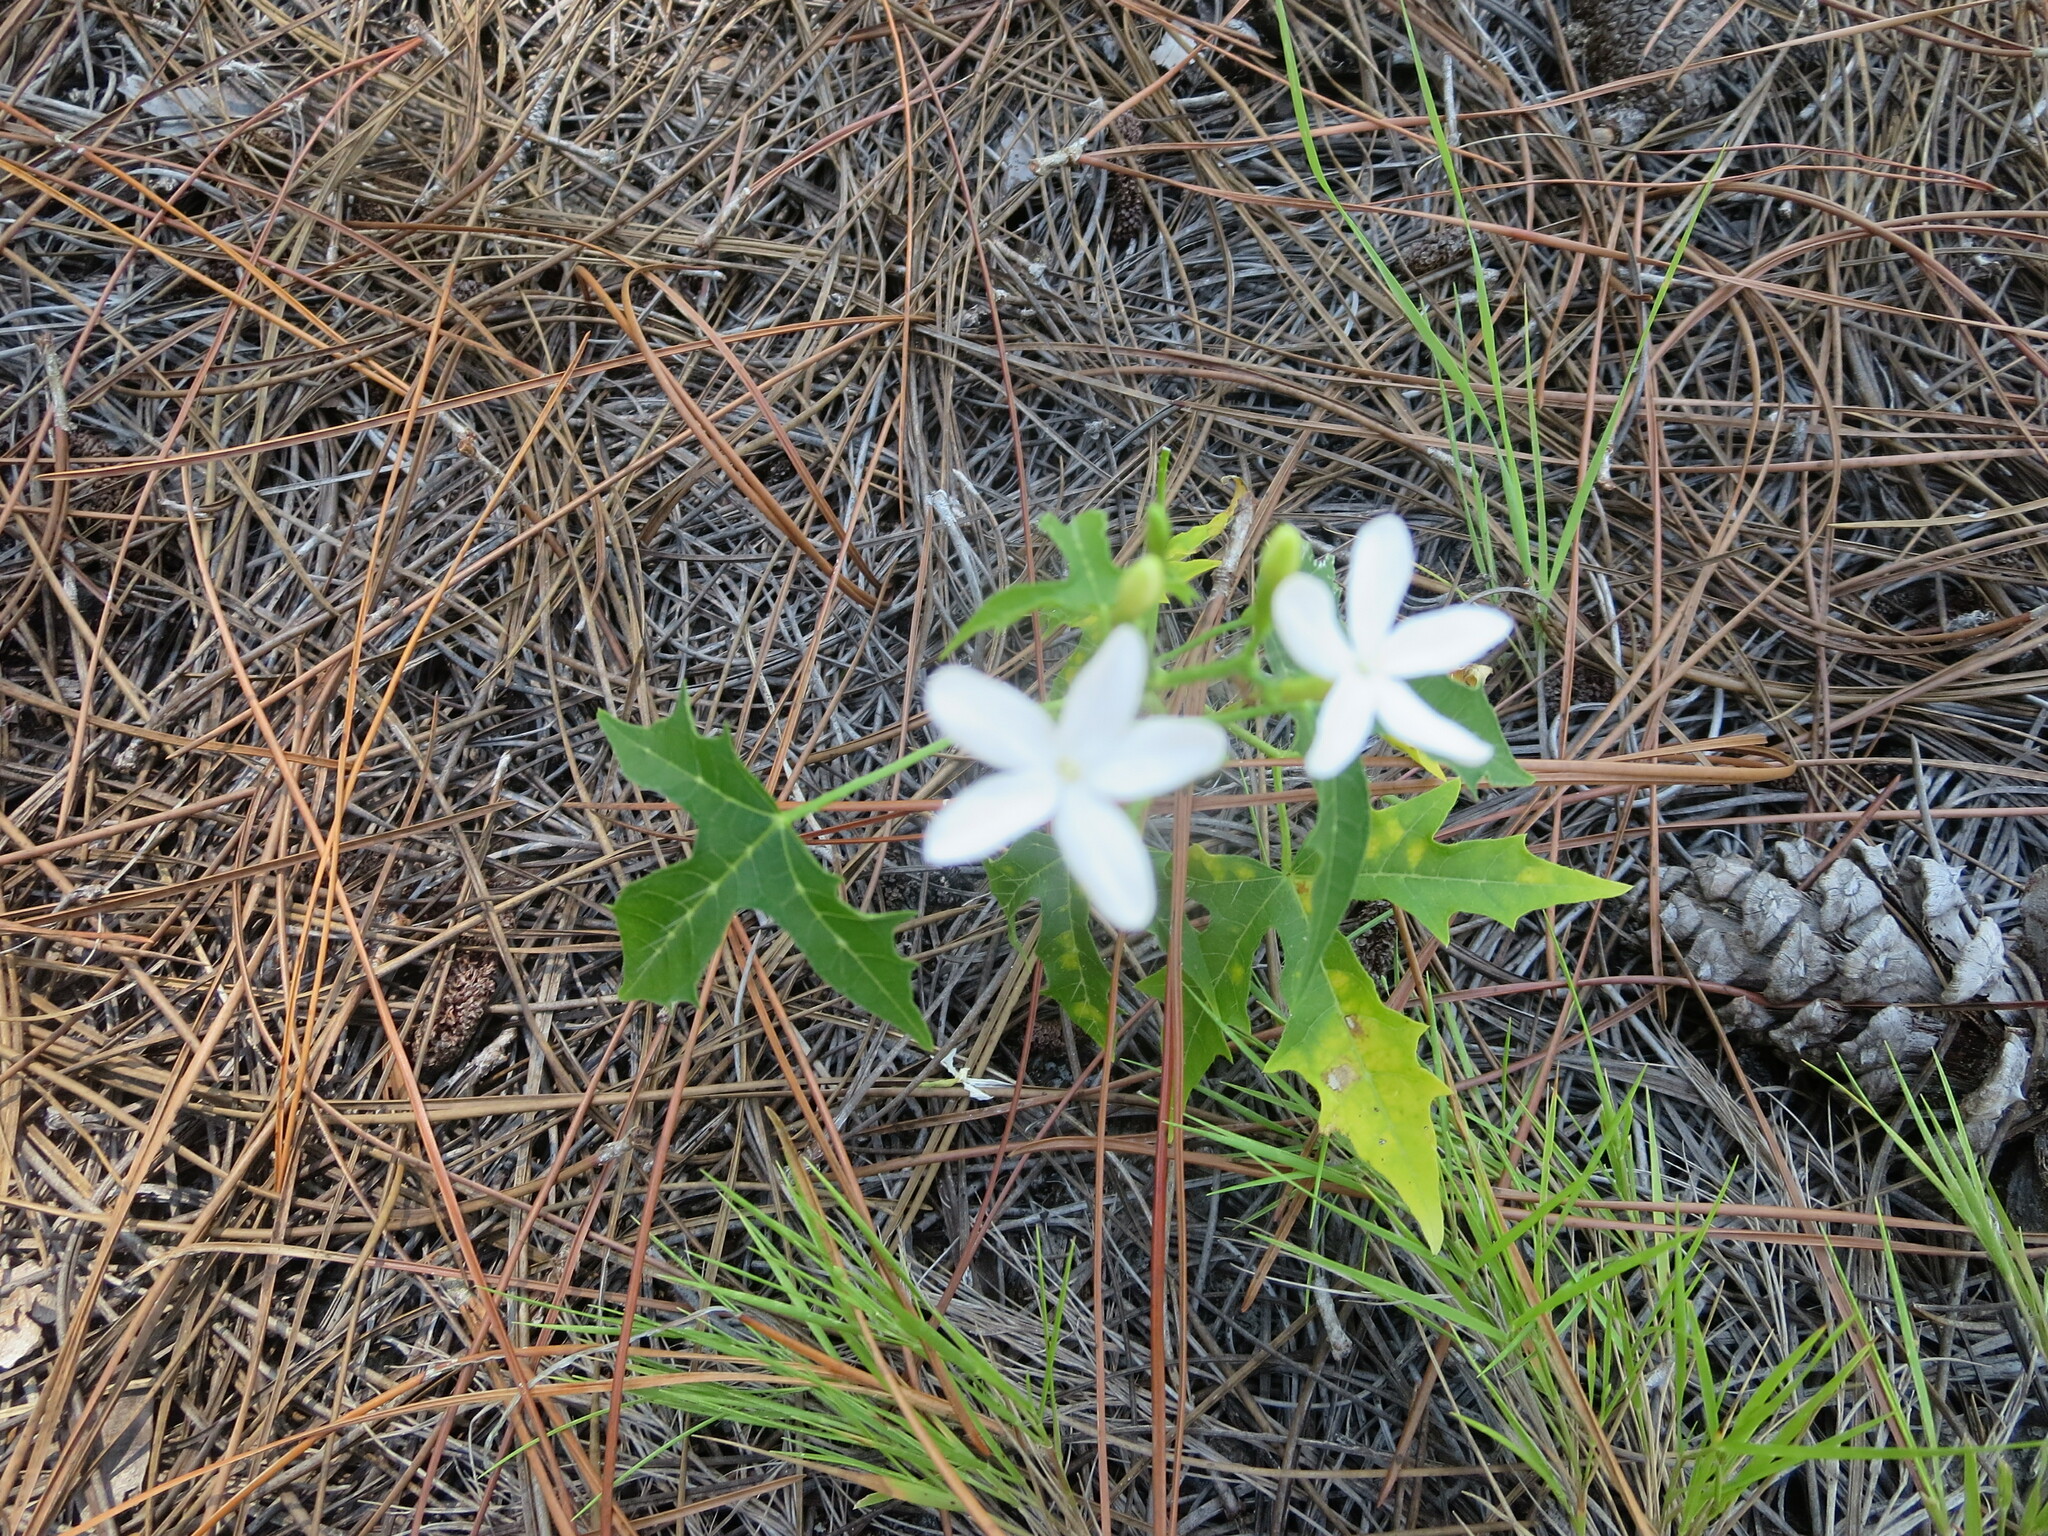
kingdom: Plantae
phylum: Tracheophyta
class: Magnoliopsida
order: Malpighiales
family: Euphorbiaceae
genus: Cnidoscolus
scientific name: Cnidoscolus stimulosus
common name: Bull-nettle
